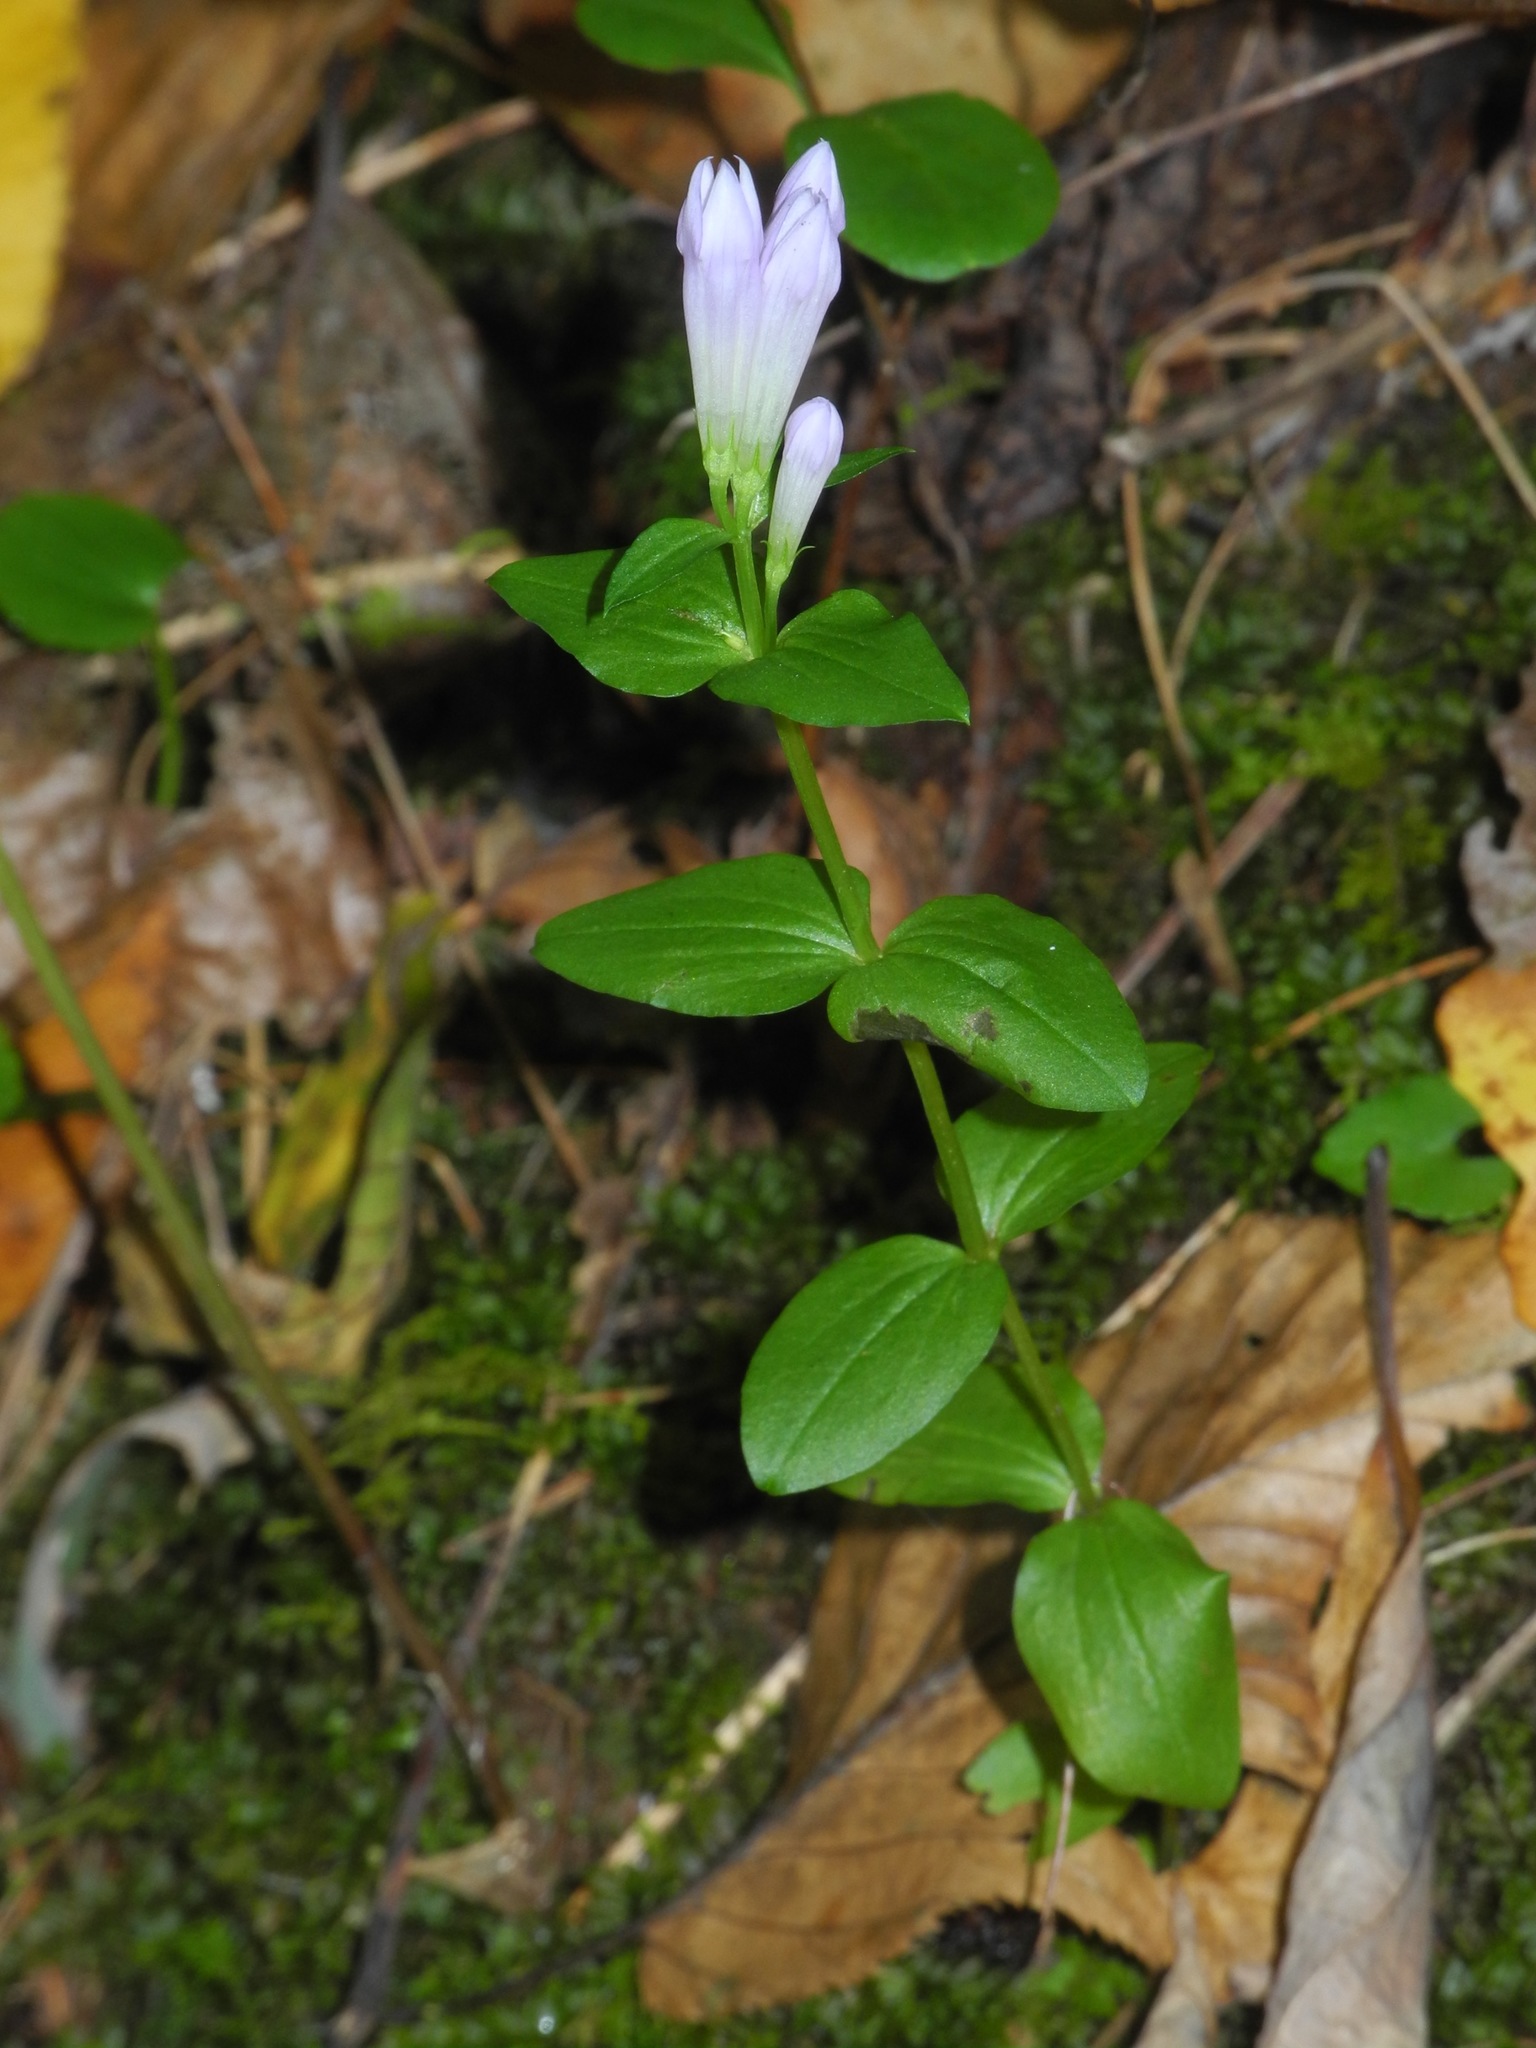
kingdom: Plantae
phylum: Tracheophyta
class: Magnoliopsida
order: Gentianales
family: Gentianaceae
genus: Gentianella
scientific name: Gentianella quinquefolia
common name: Agueweed
